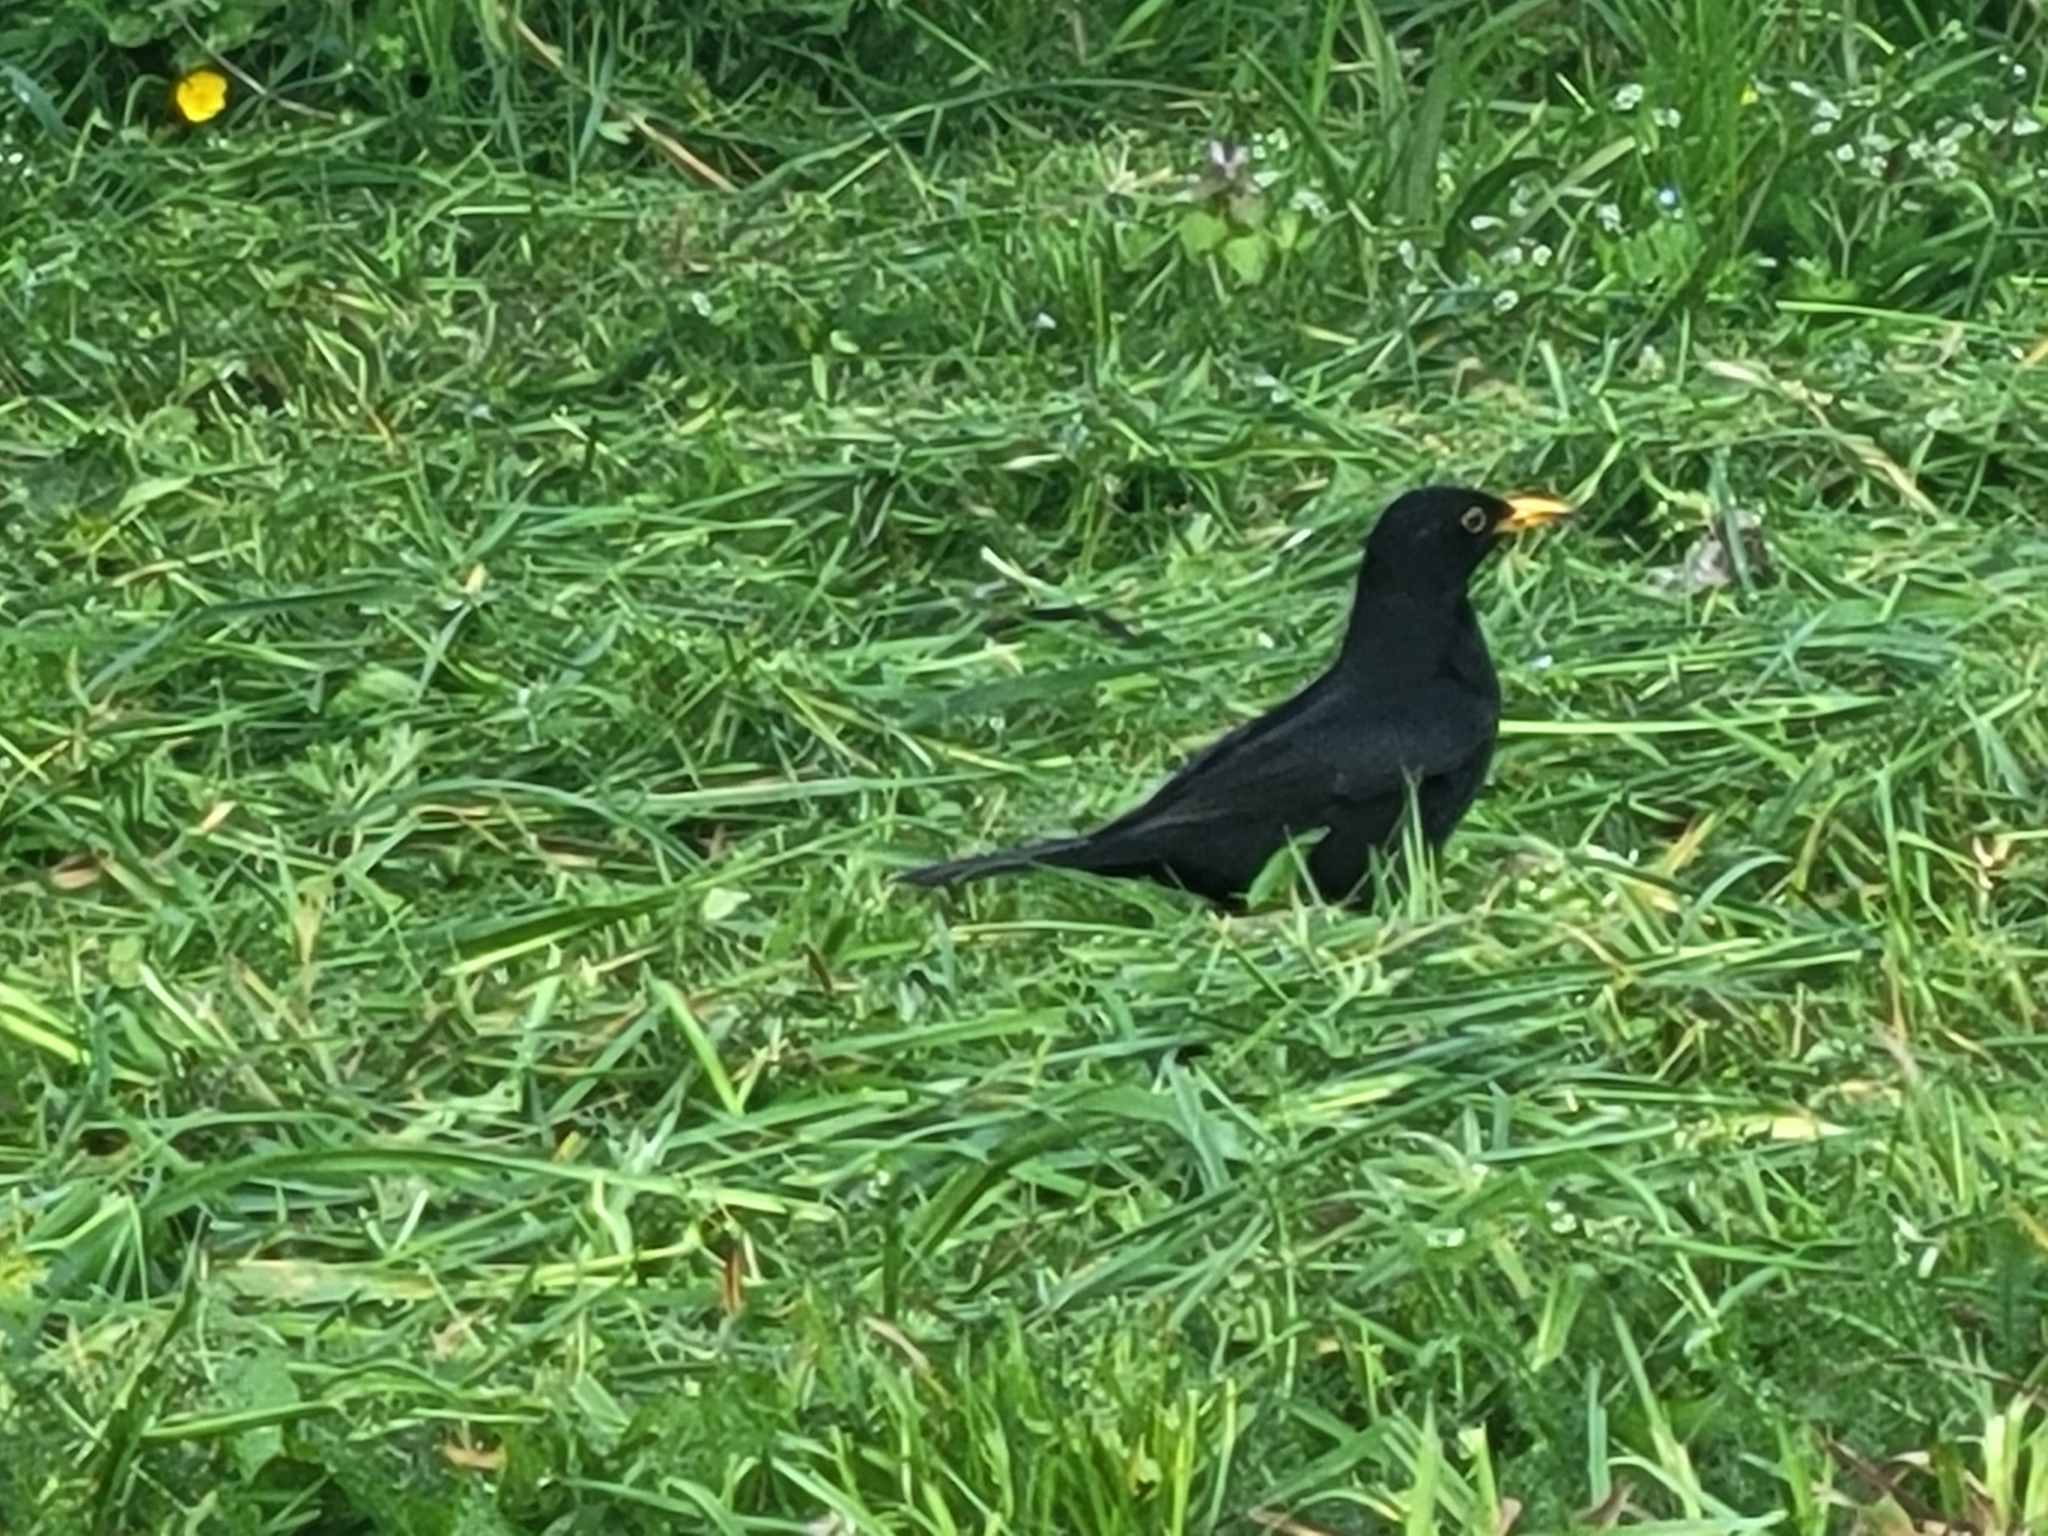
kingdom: Animalia
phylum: Chordata
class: Aves
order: Passeriformes
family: Turdidae
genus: Turdus
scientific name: Turdus merula
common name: Common blackbird
